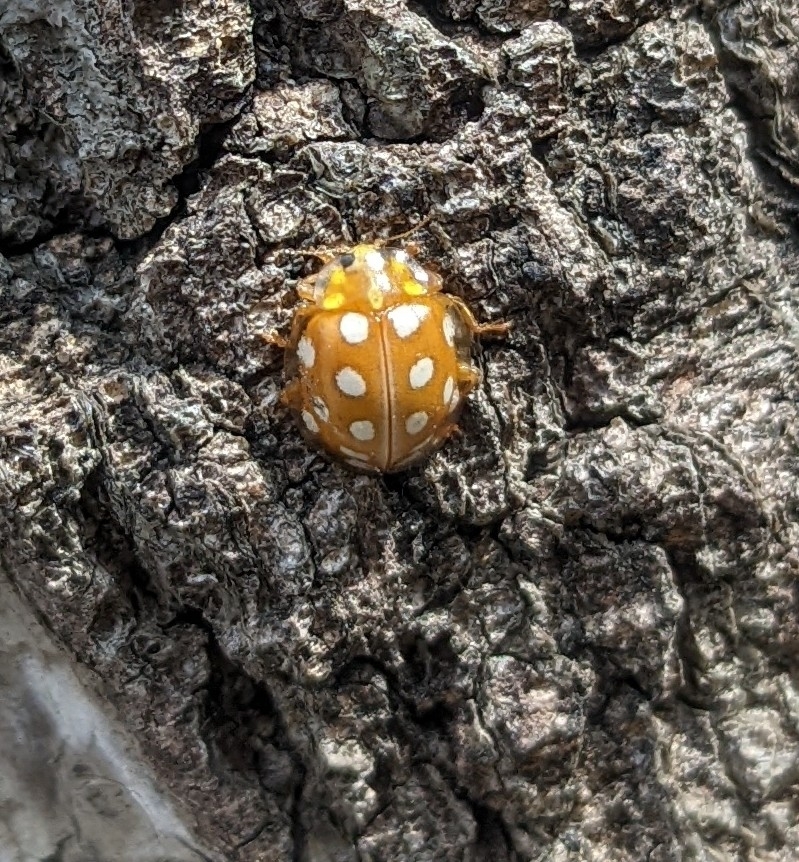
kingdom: Animalia
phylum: Arthropoda
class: Insecta
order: Coleoptera
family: Coccinellidae
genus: Halyzia
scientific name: Halyzia sedecimguttata
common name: Orange ladybird
